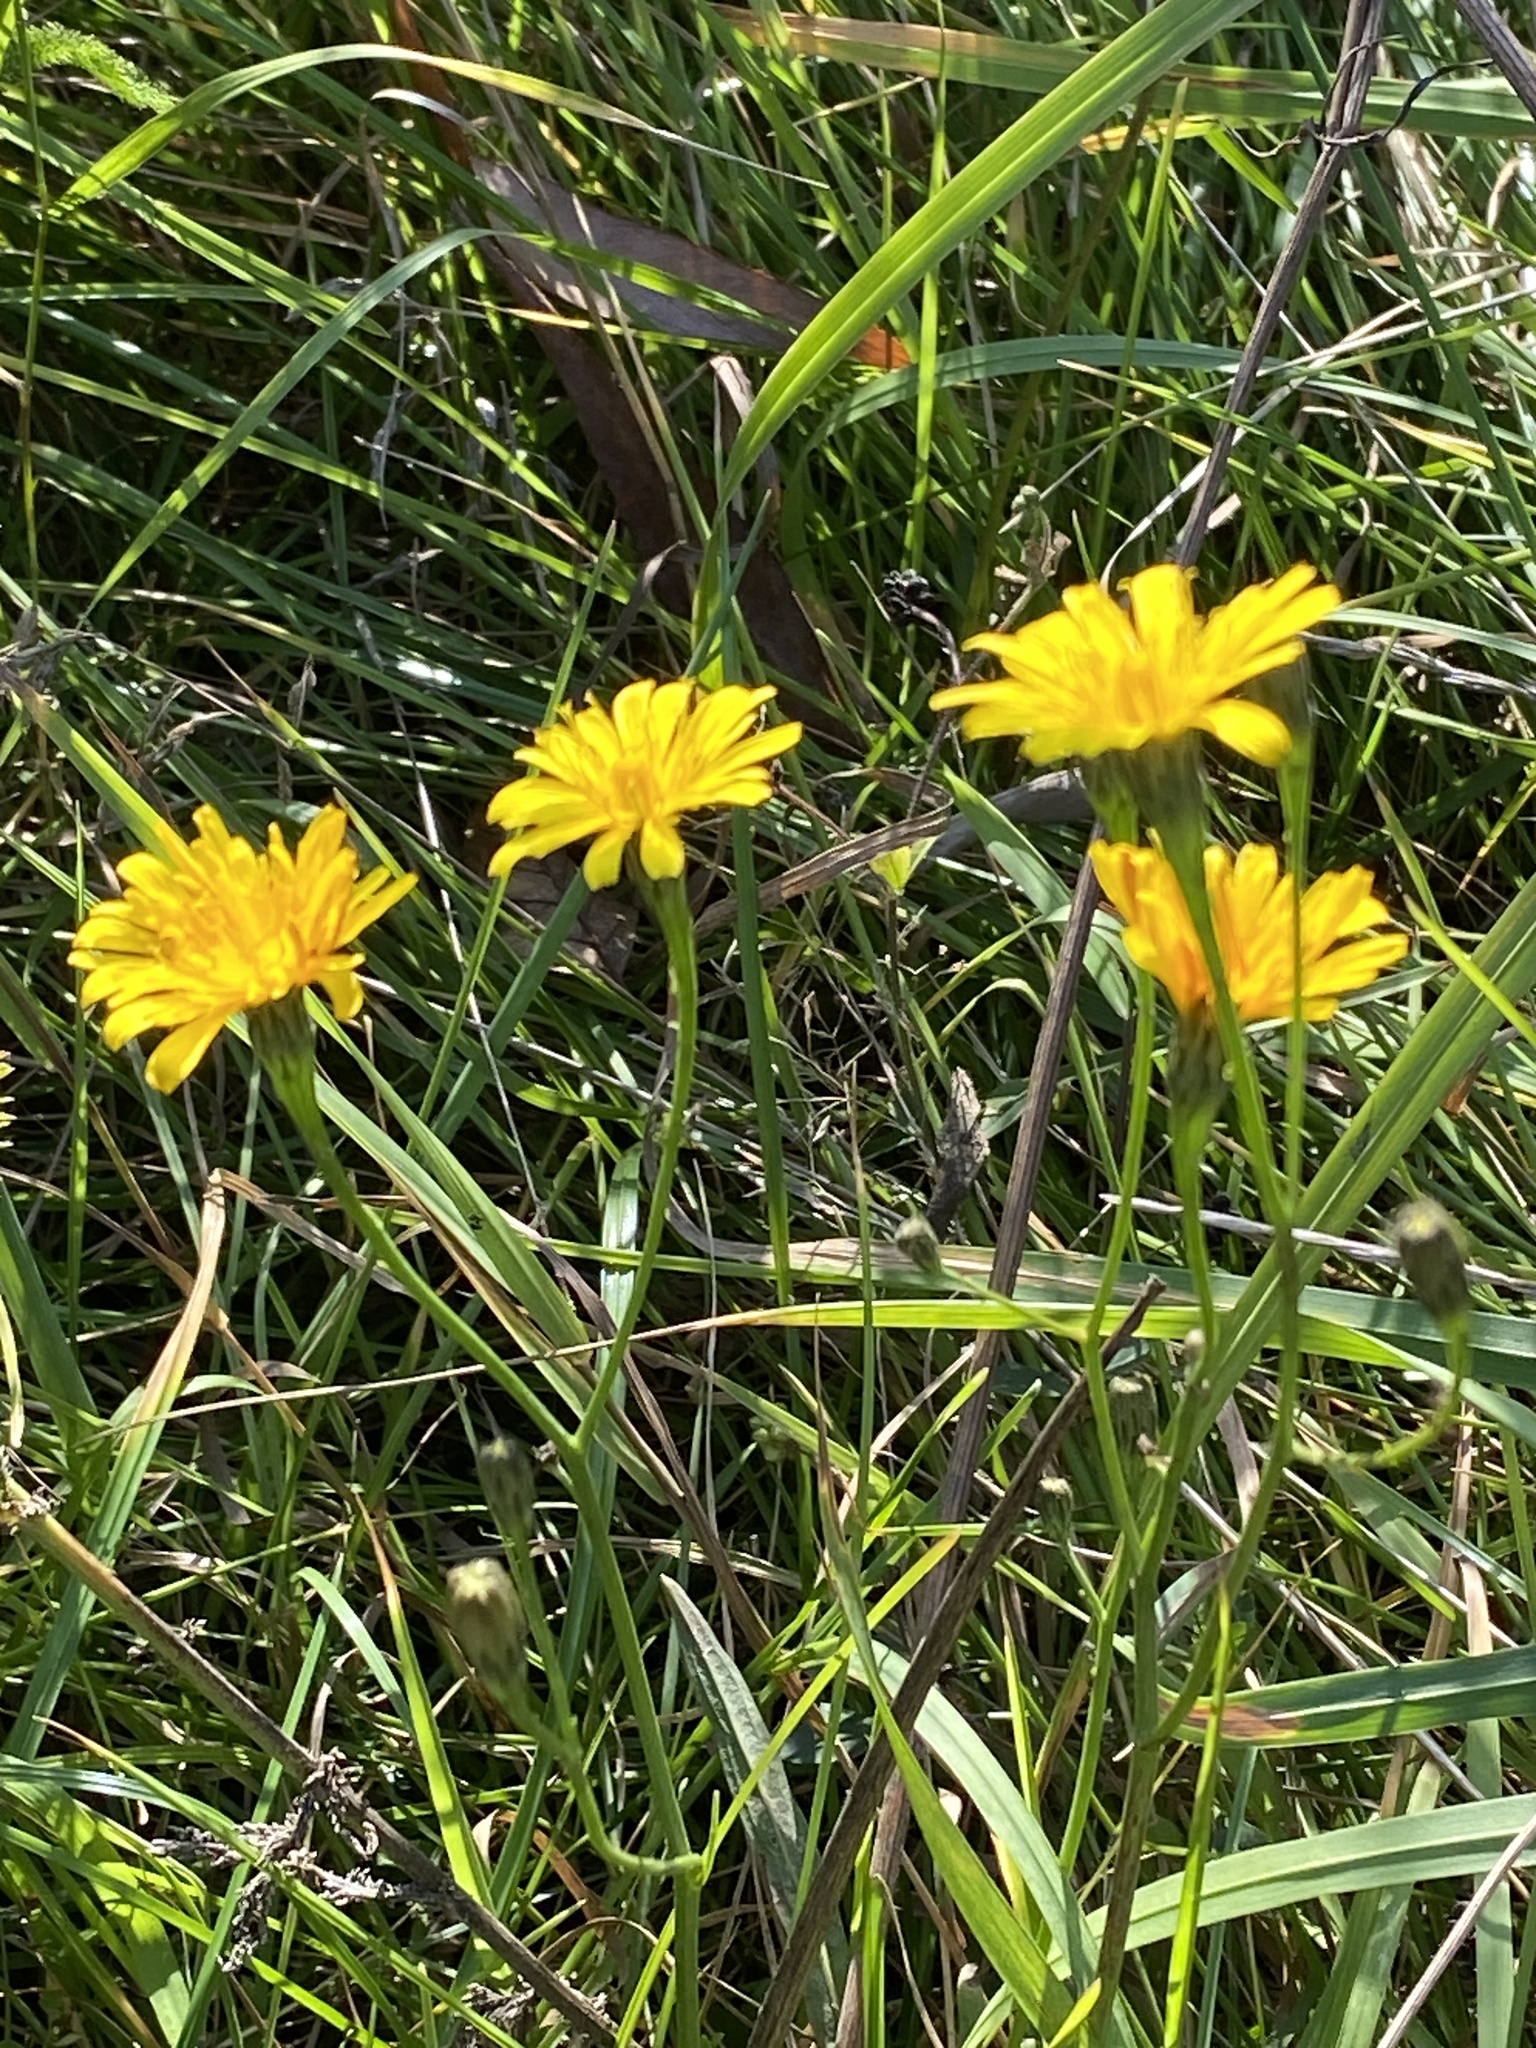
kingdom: Plantae
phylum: Tracheophyta
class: Magnoliopsida
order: Asterales
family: Asteraceae
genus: Scorzoneroides
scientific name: Scorzoneroides autumnalis
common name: Autumn hawkbit
